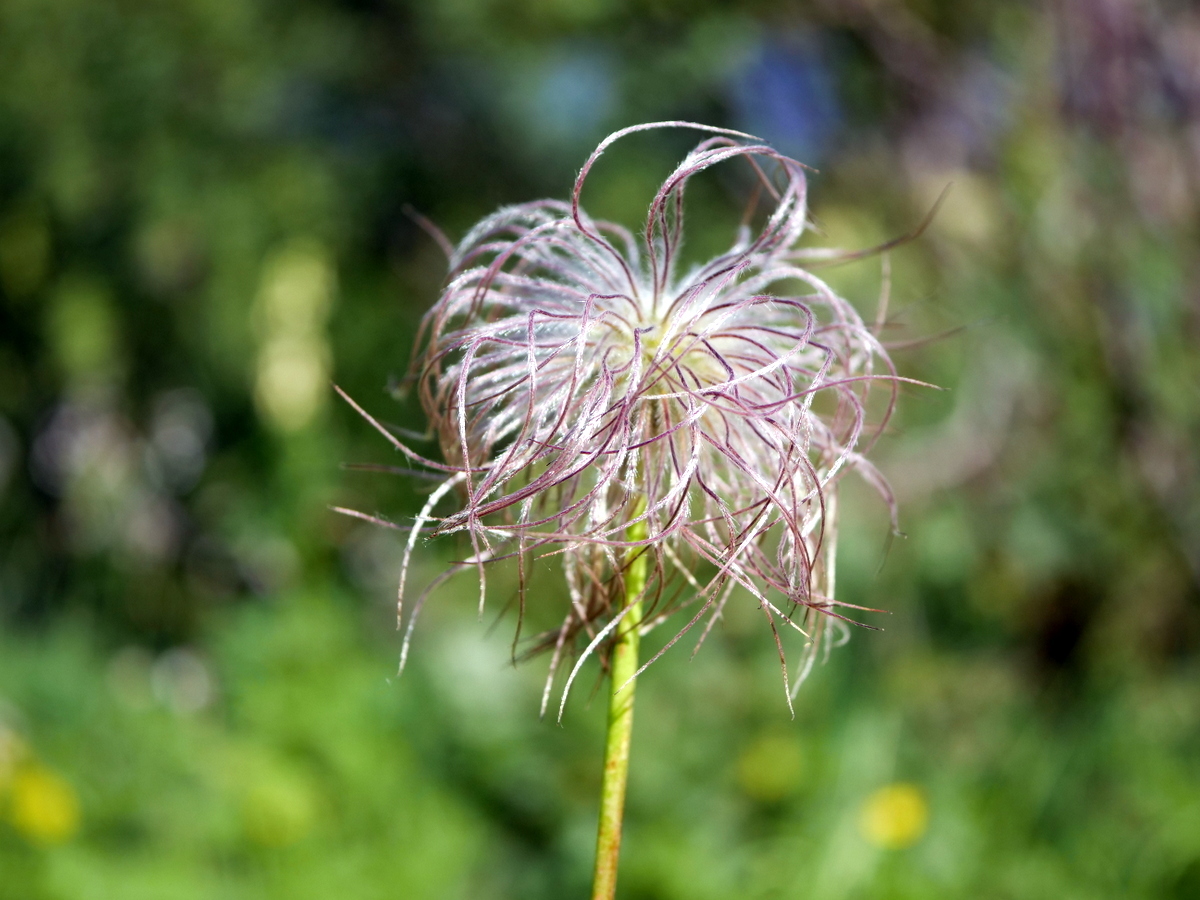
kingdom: Plantae
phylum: Tracheophyta
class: Magnoliopsida
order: Ranunculales
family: Ranunculaceae
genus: Pulsatilla
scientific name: Pulsatilla alpina
